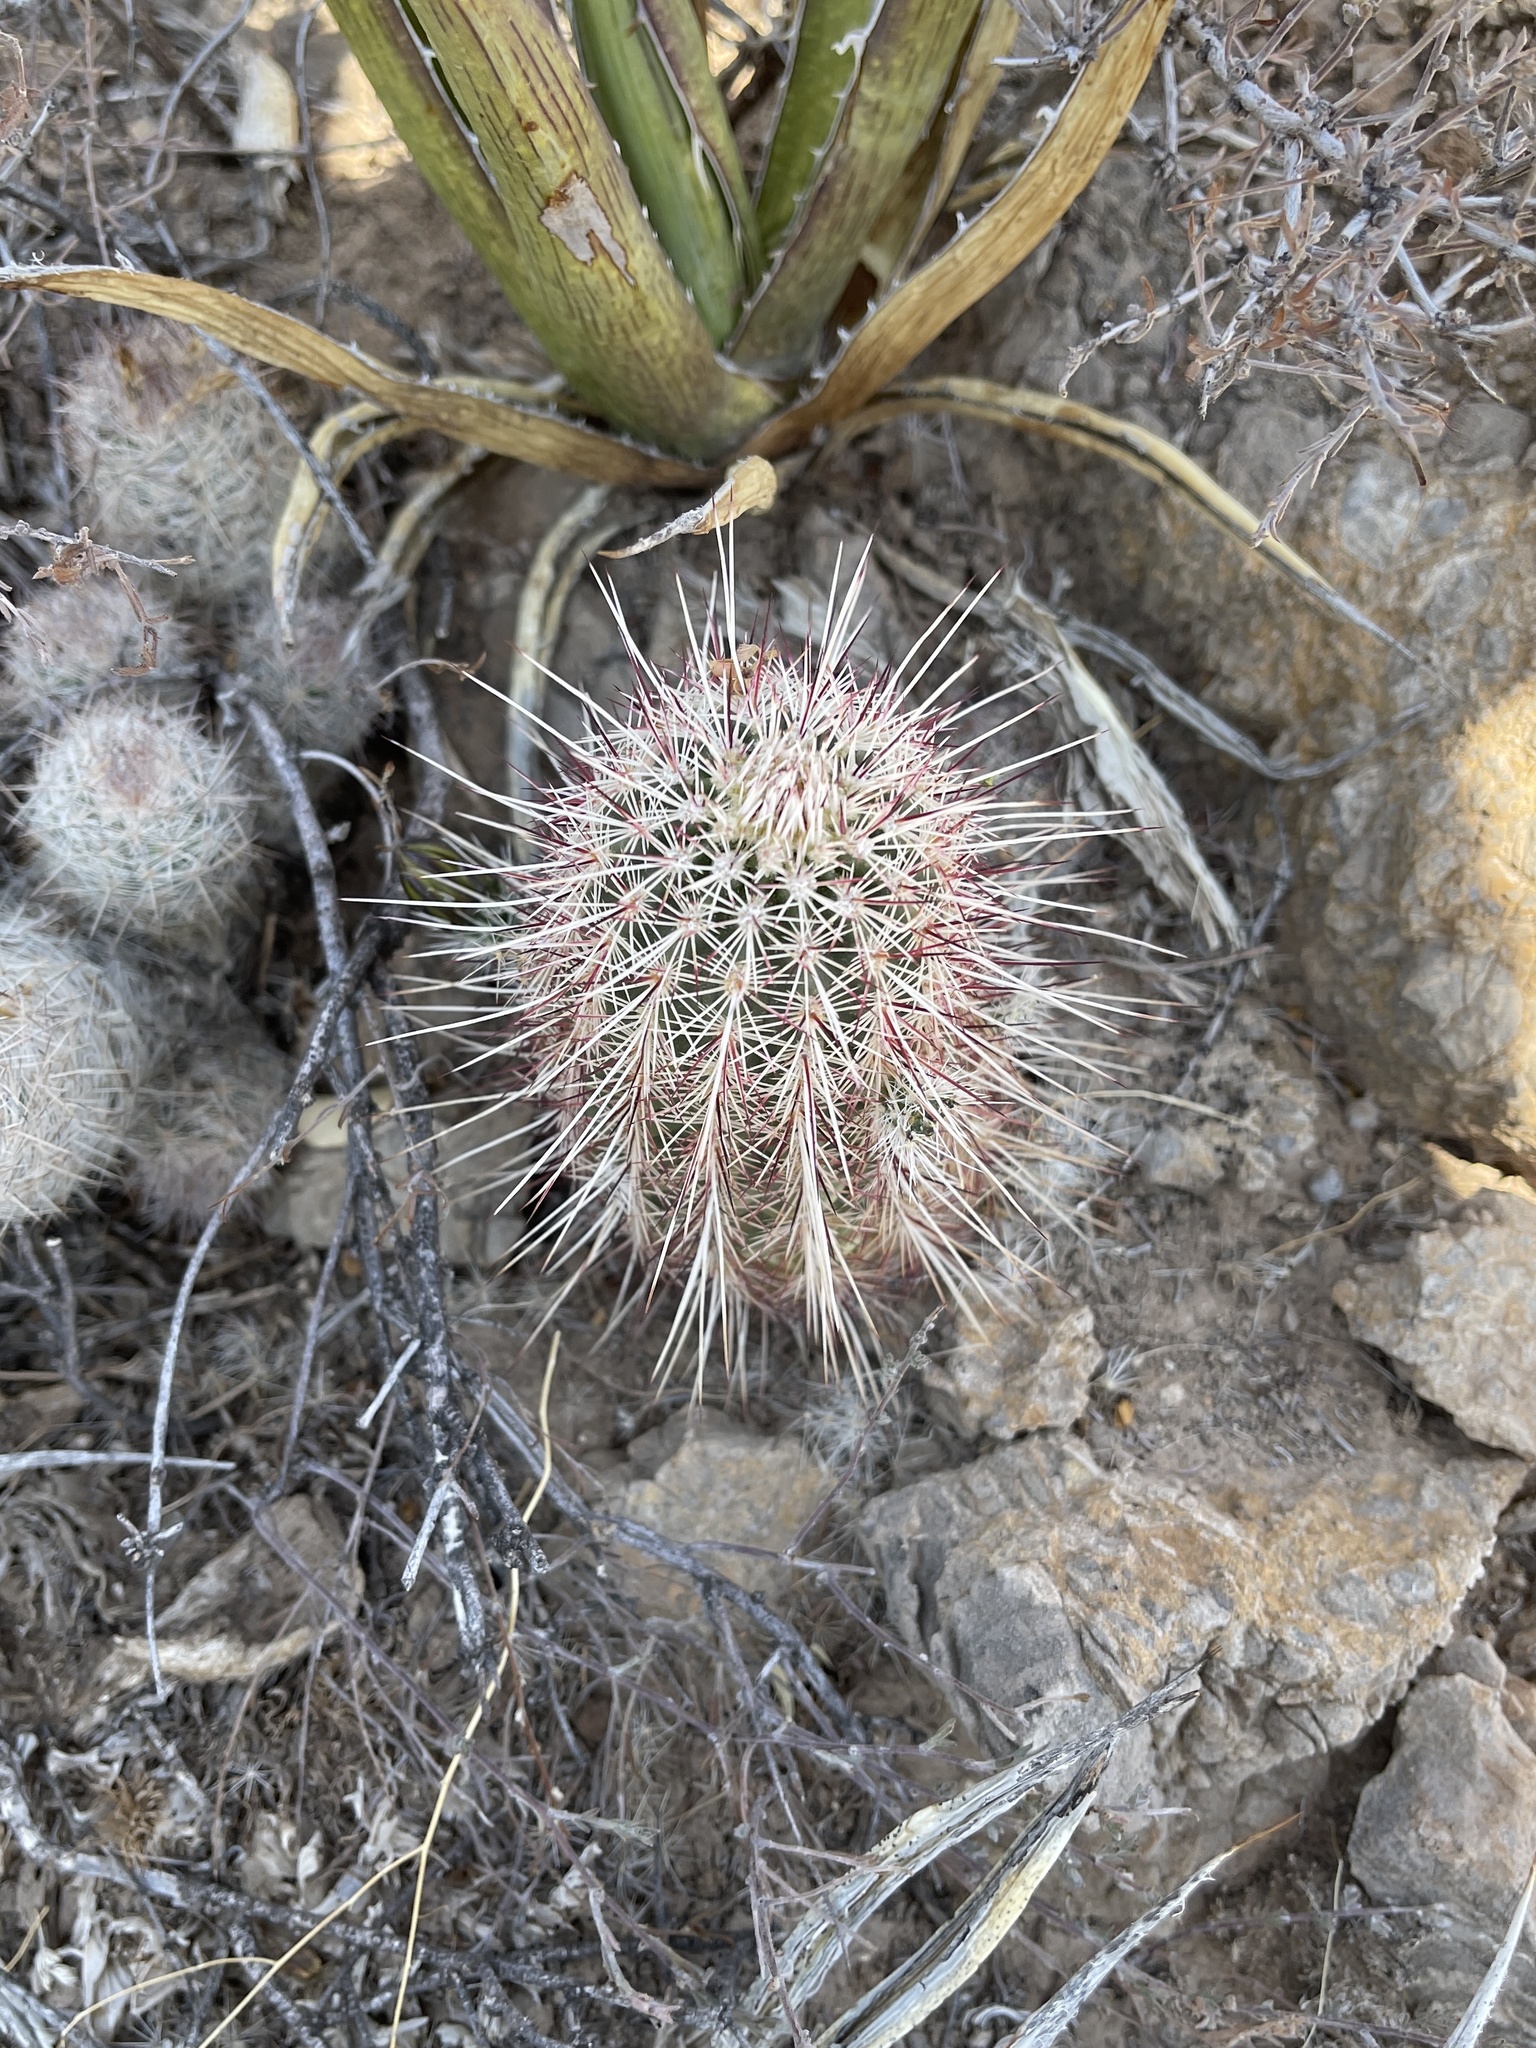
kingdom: Plantae
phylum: Tracheophyta
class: Magnoliopsida
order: Caryophyllales
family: Cactaceae
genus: Echinocereus
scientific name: Echinocereus viridiflorus
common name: Nylon hedgehog cactus
